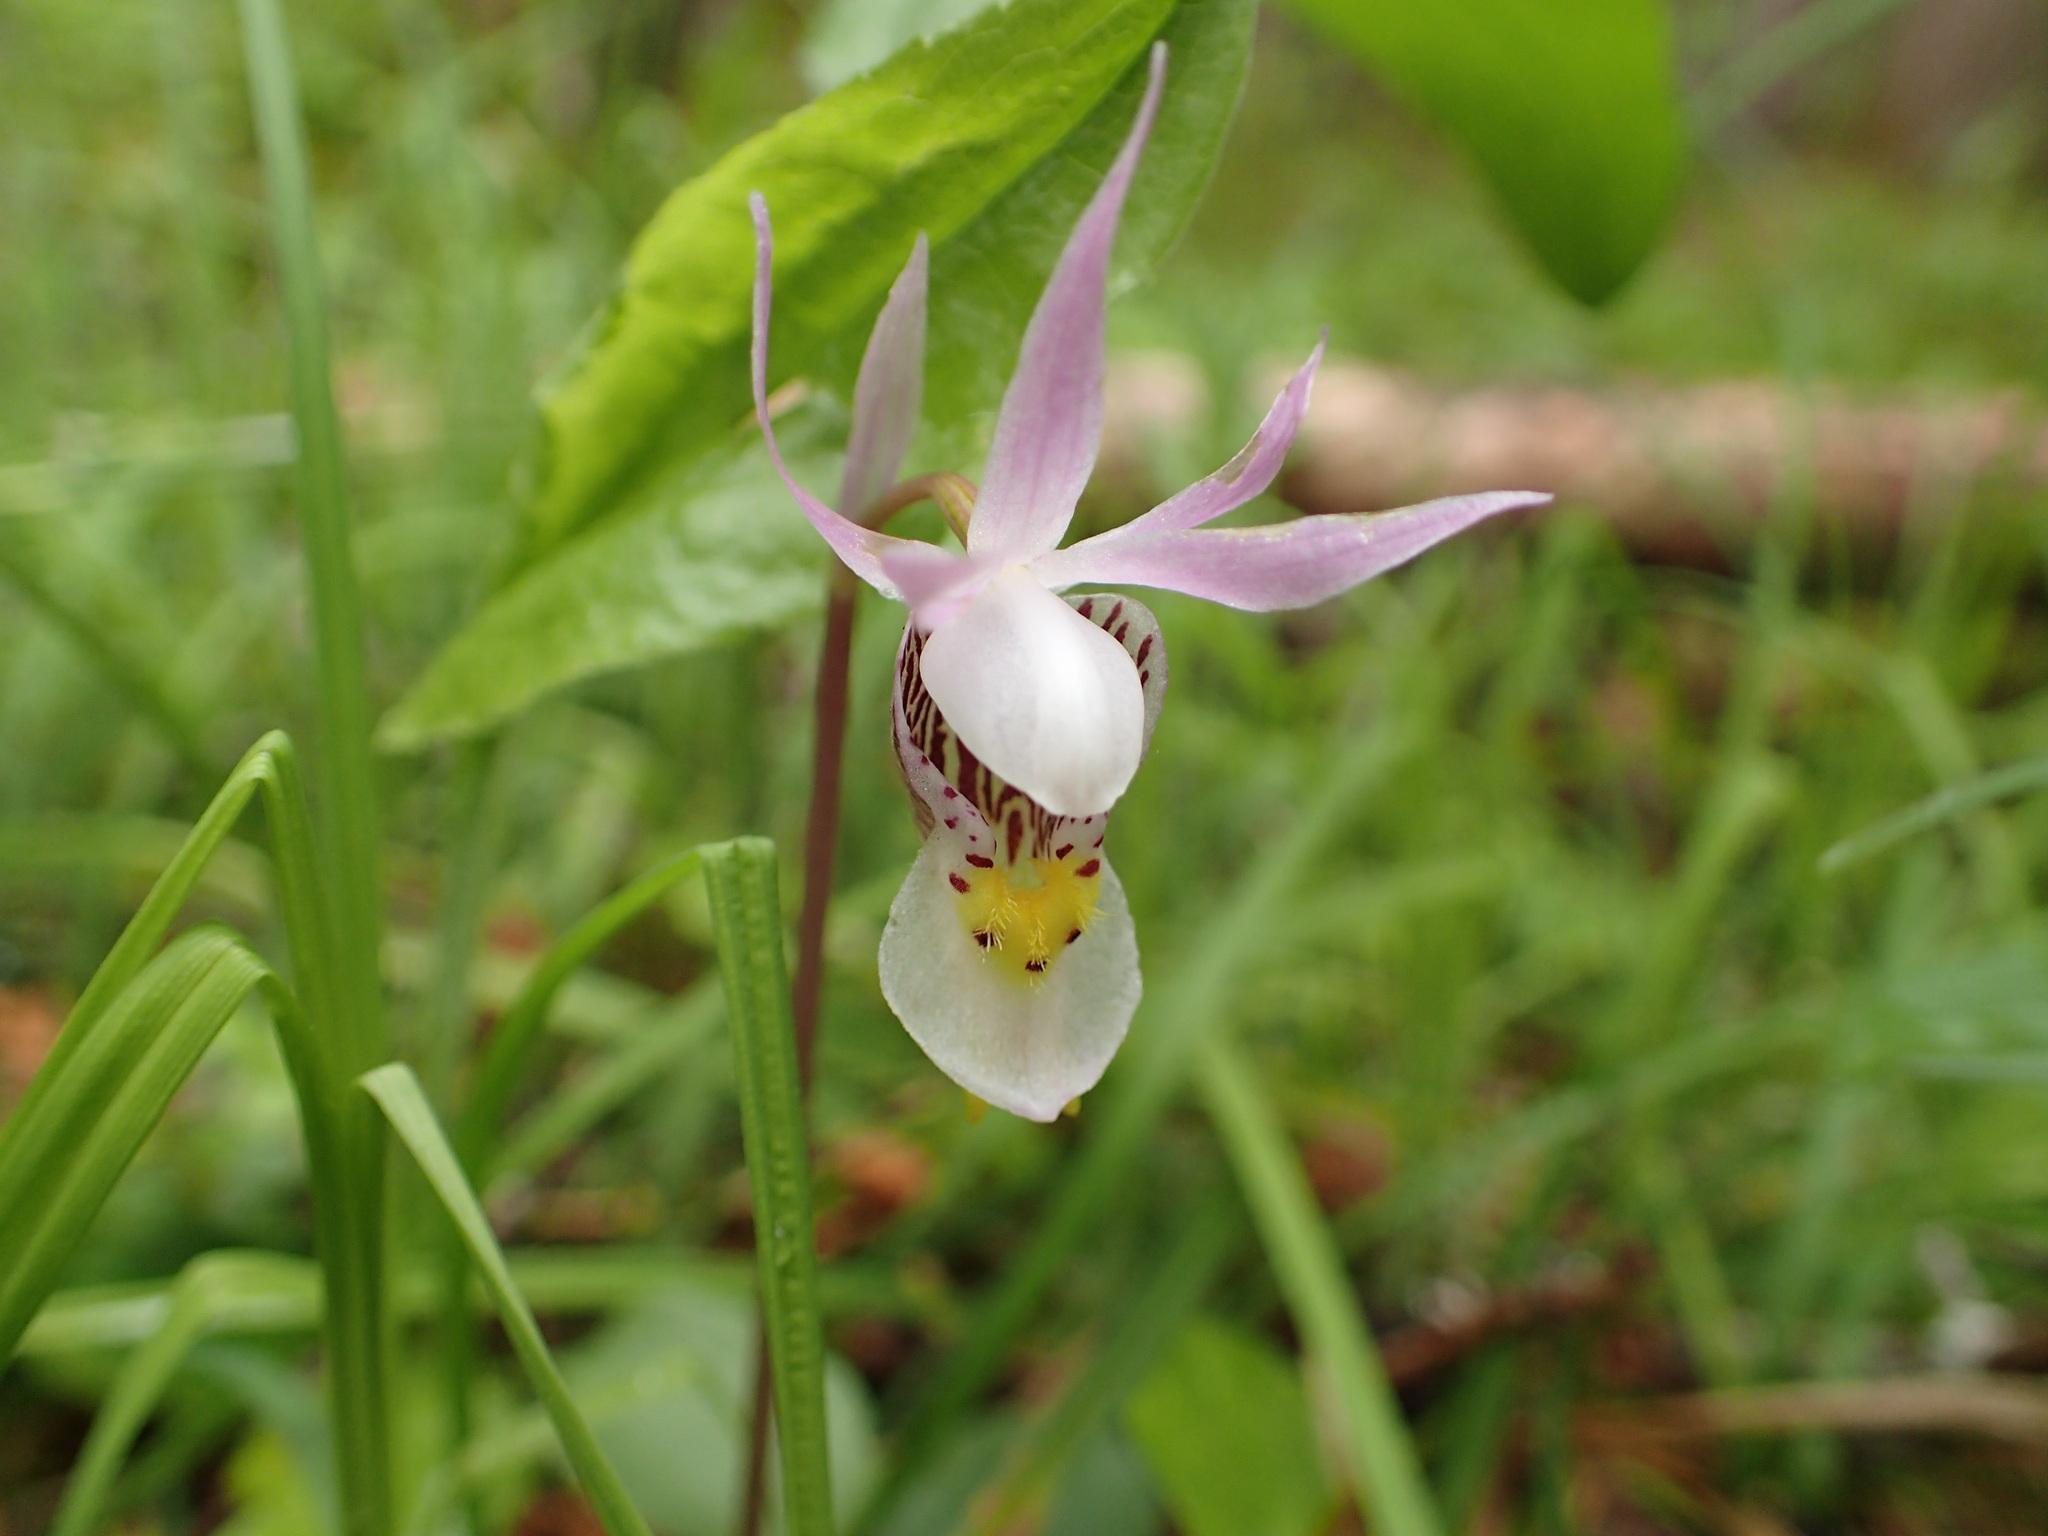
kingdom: Plantae
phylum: Tracheophyta
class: Liliopsida
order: Asparagales
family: Orchidaceae
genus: Calypso
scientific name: Calypso bulbosa
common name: Calypso
